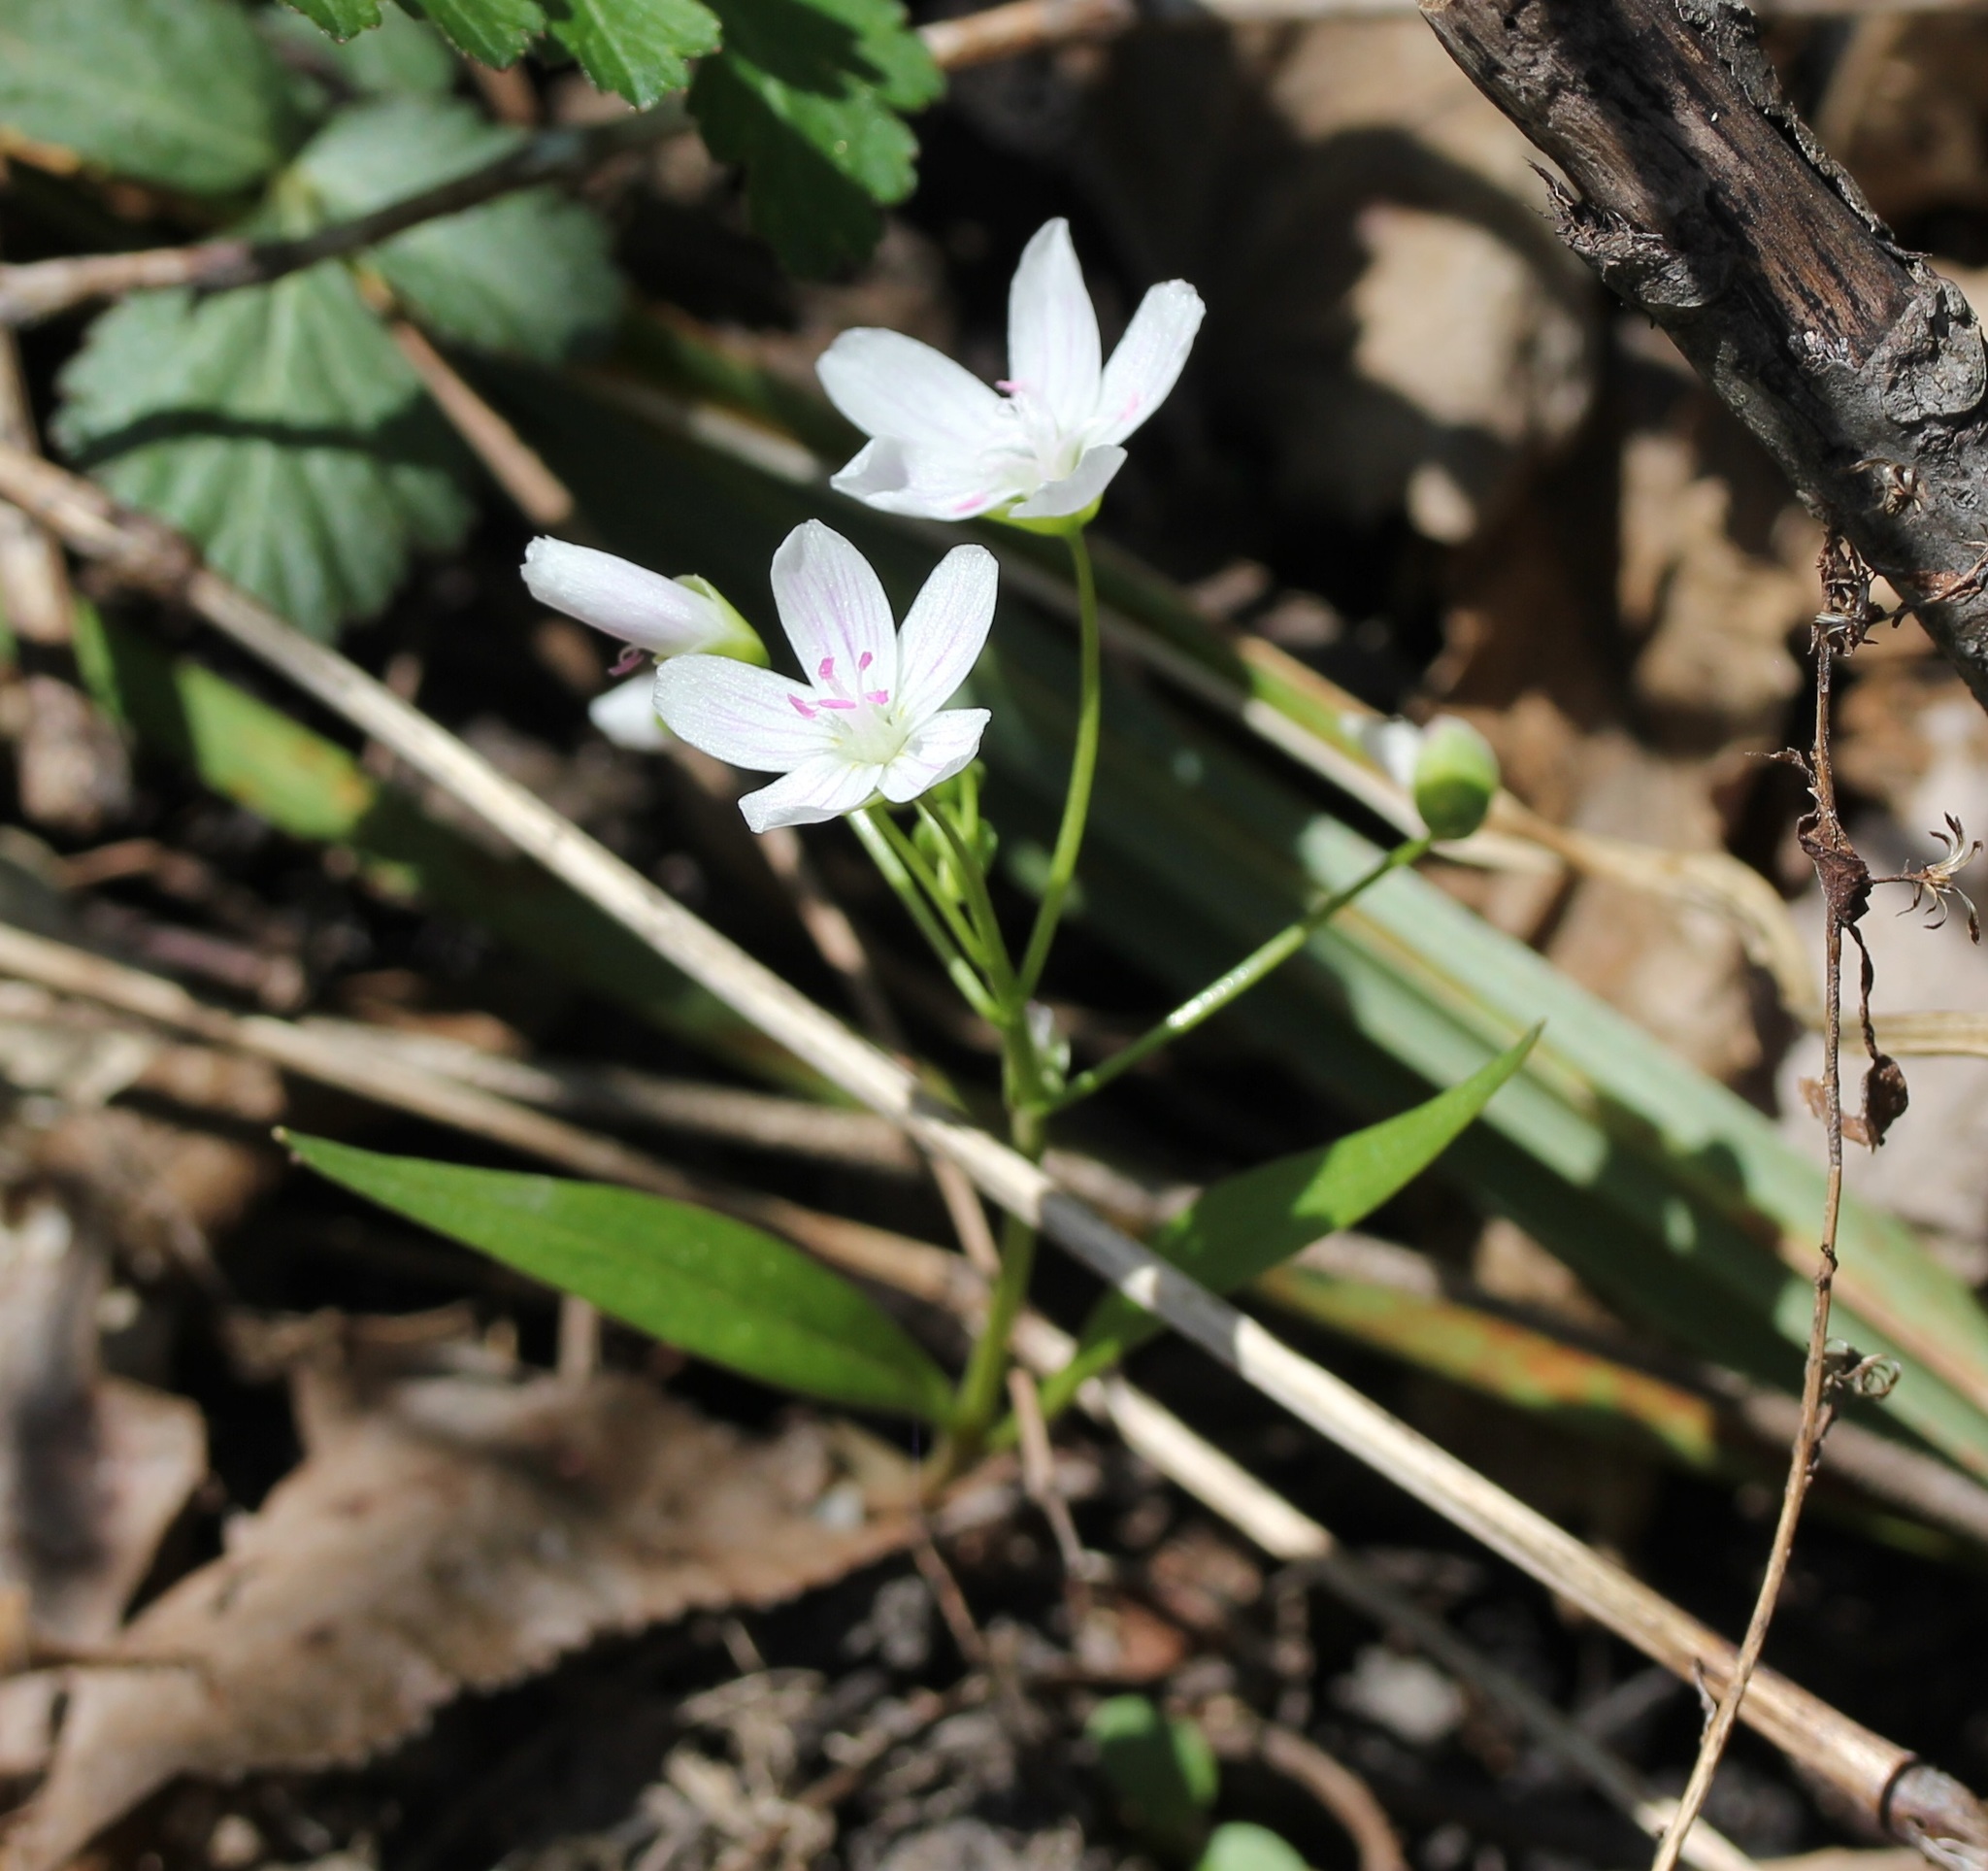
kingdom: Plantae
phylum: Tracheophyta
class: Magnoliopsida
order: Caryophyllales
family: Montiaceae
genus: Claytonia
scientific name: Claytonia virginica
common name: Virginia springbeauty
